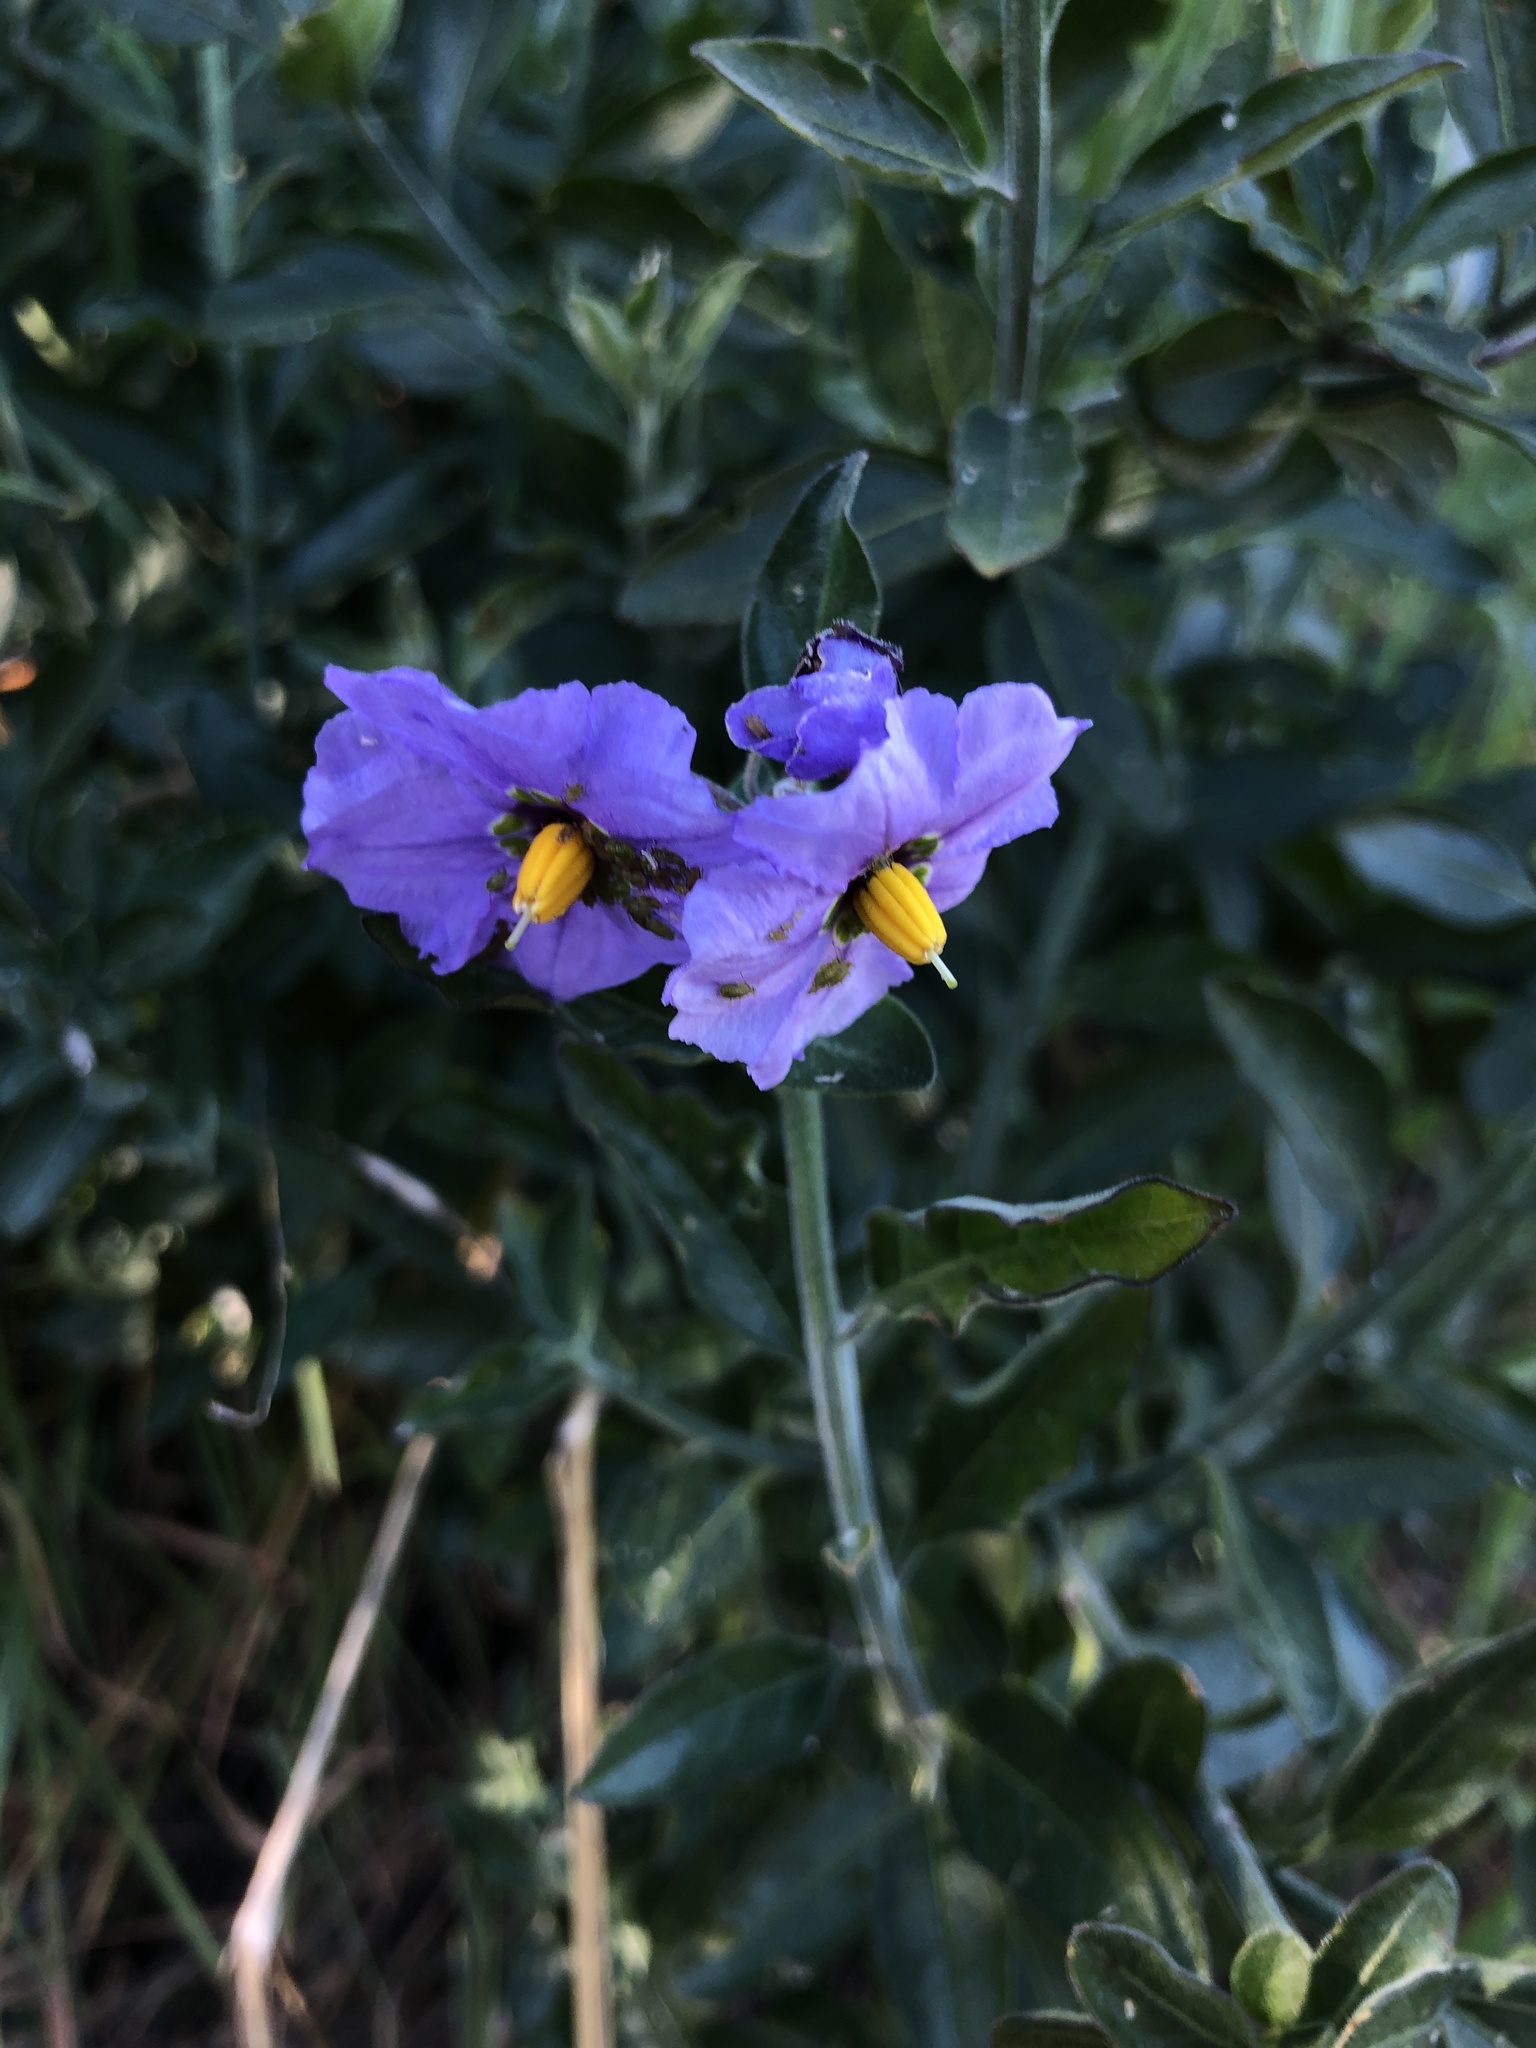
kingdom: Plantae
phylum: Tracheophyta
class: Magnoliopsida
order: Solanales
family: Solanaceae
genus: Solanum
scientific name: Solanum umbelliferum
